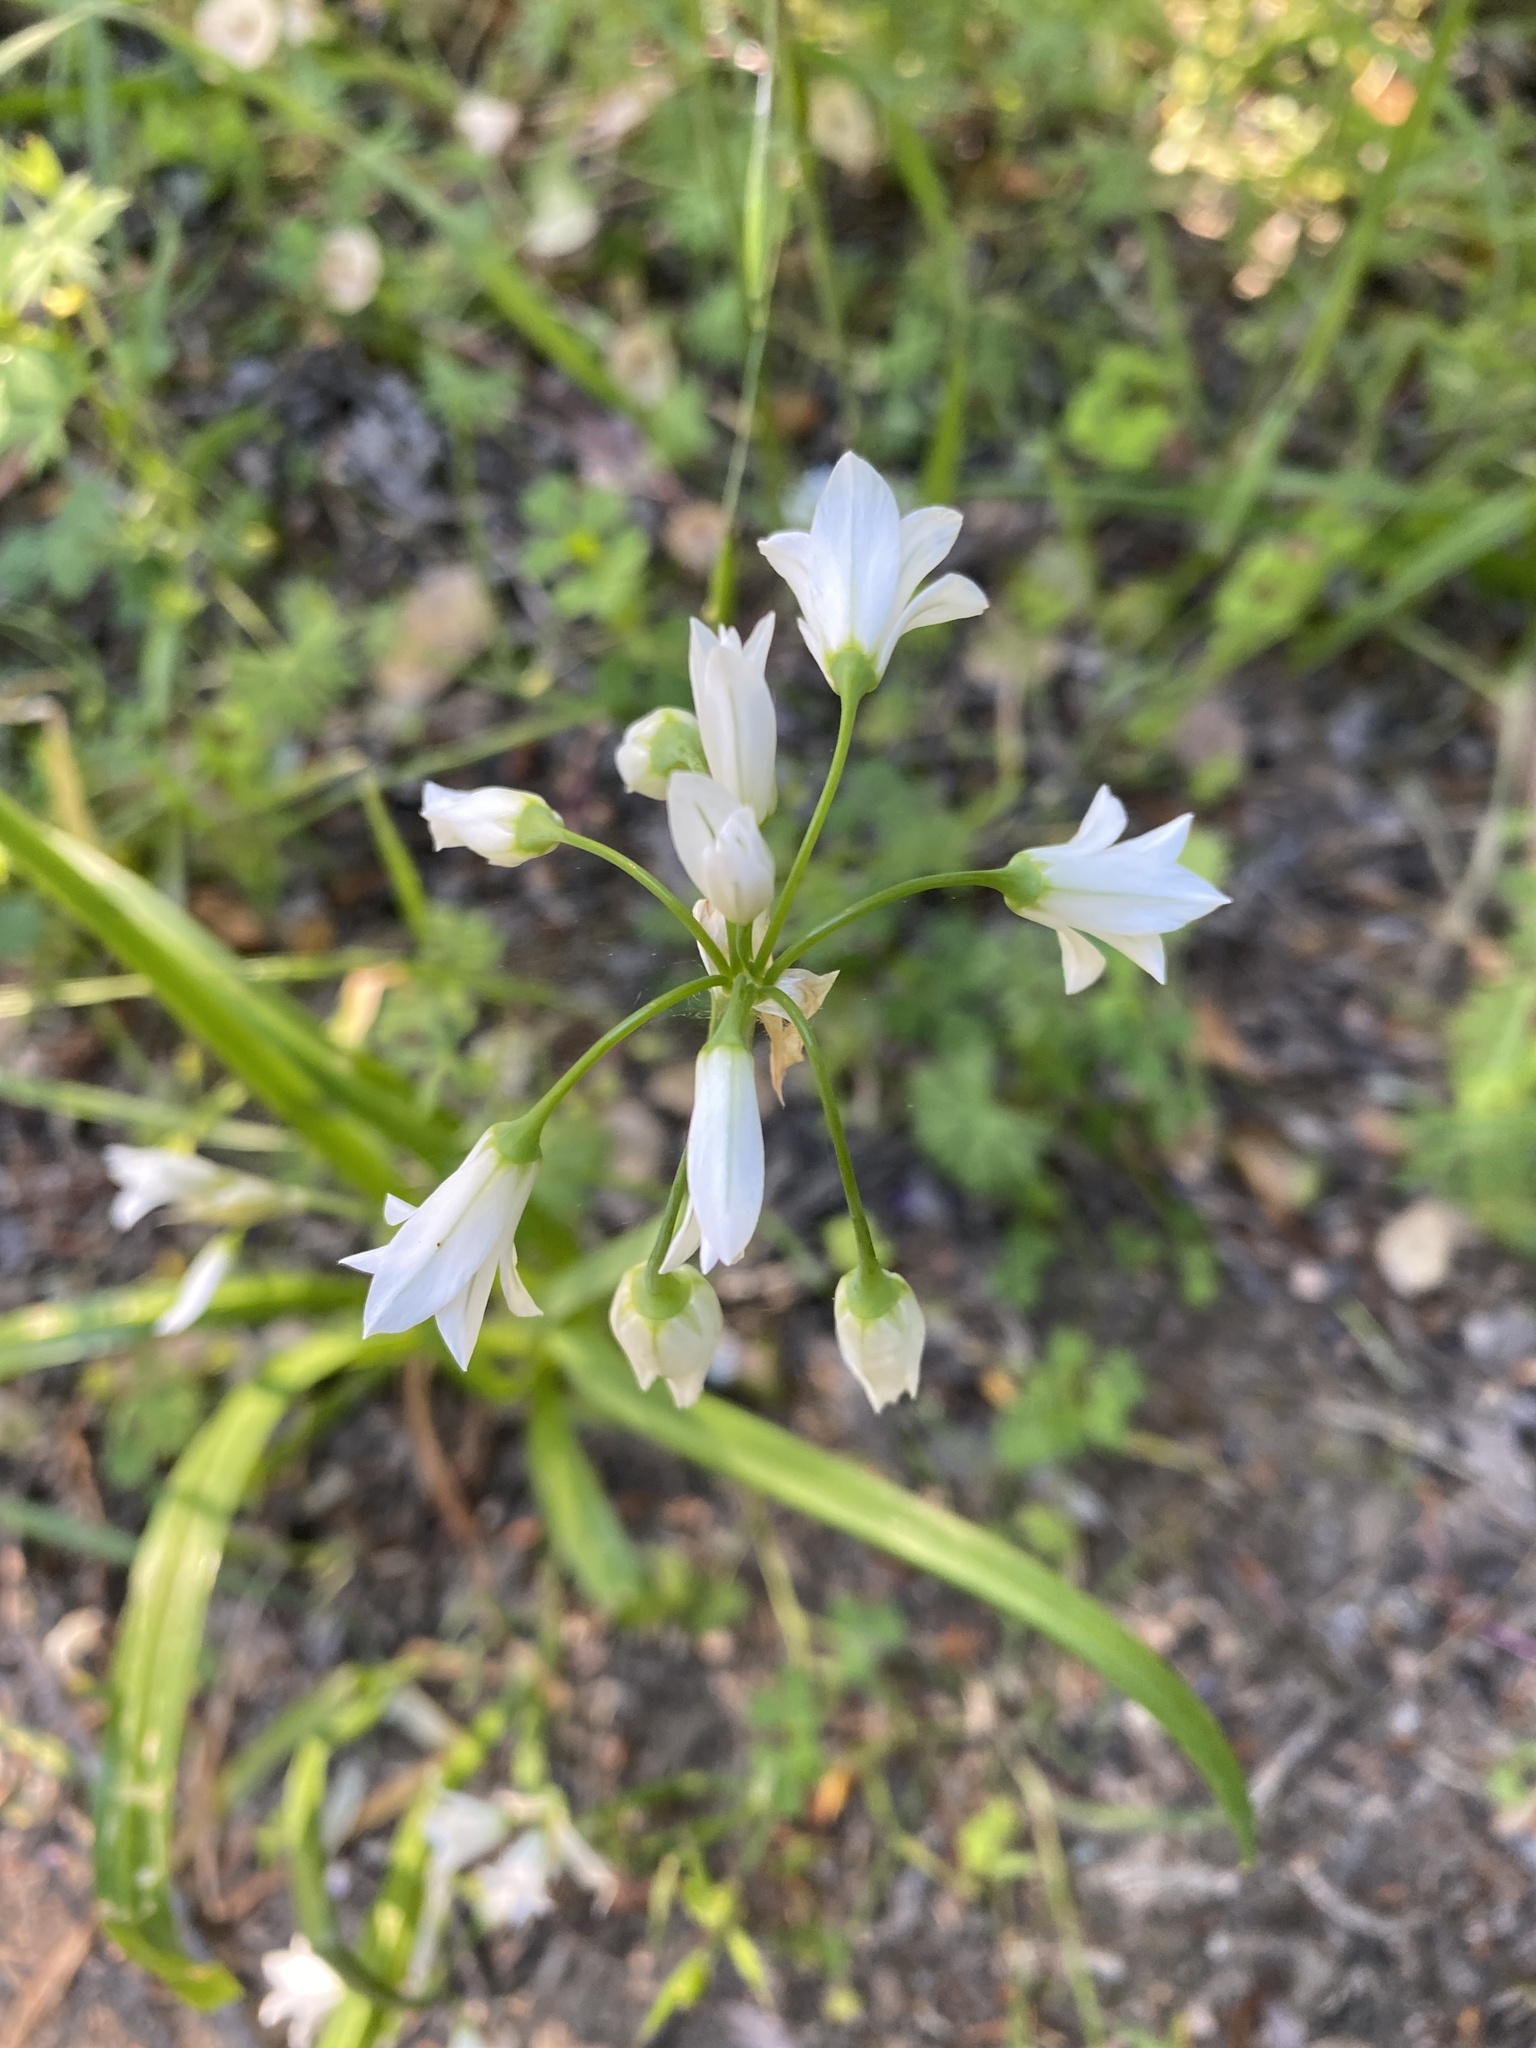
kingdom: Plantae
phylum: Tracheophyta
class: Liliopsida
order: Asparagales
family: Amaryllidaceae
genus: Allium
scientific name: Allium triquetrum
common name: Three-cornered garlic
